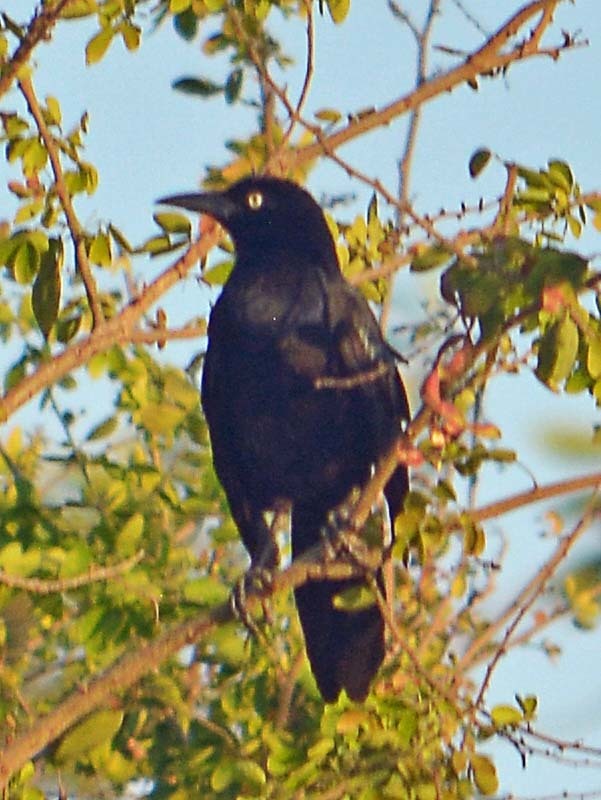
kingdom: Animalia
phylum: Chordata
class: Aves
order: Passeriformes
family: Icteridae
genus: Quiscalus
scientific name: Quiscalus mexicanus
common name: Great-tailed grackle
